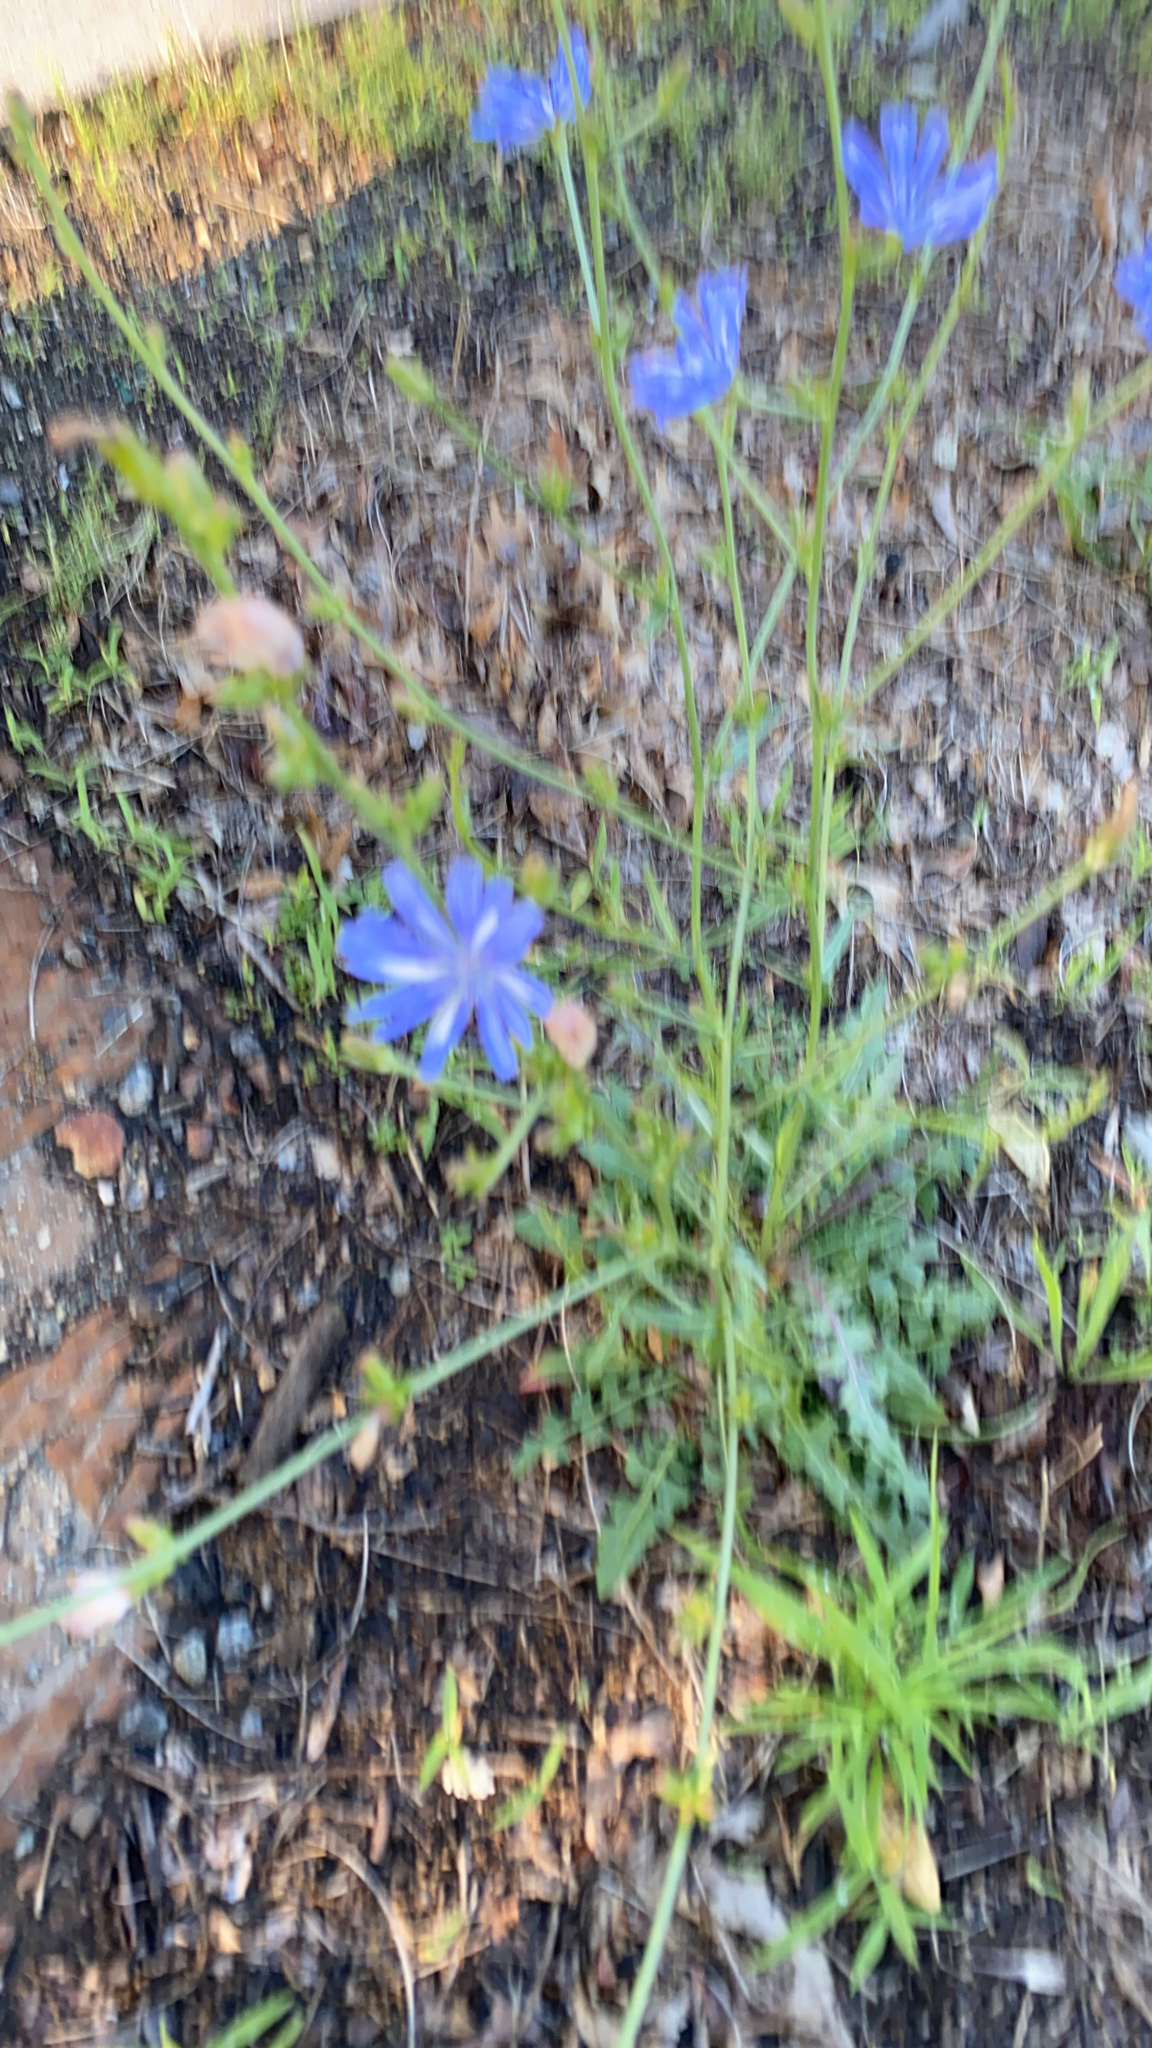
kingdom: Plantae
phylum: Tracheophyta
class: Magnoliopsida
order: Asterales
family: Asteraceae
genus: Cichorium
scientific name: Cichorium intybus
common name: Chicory
